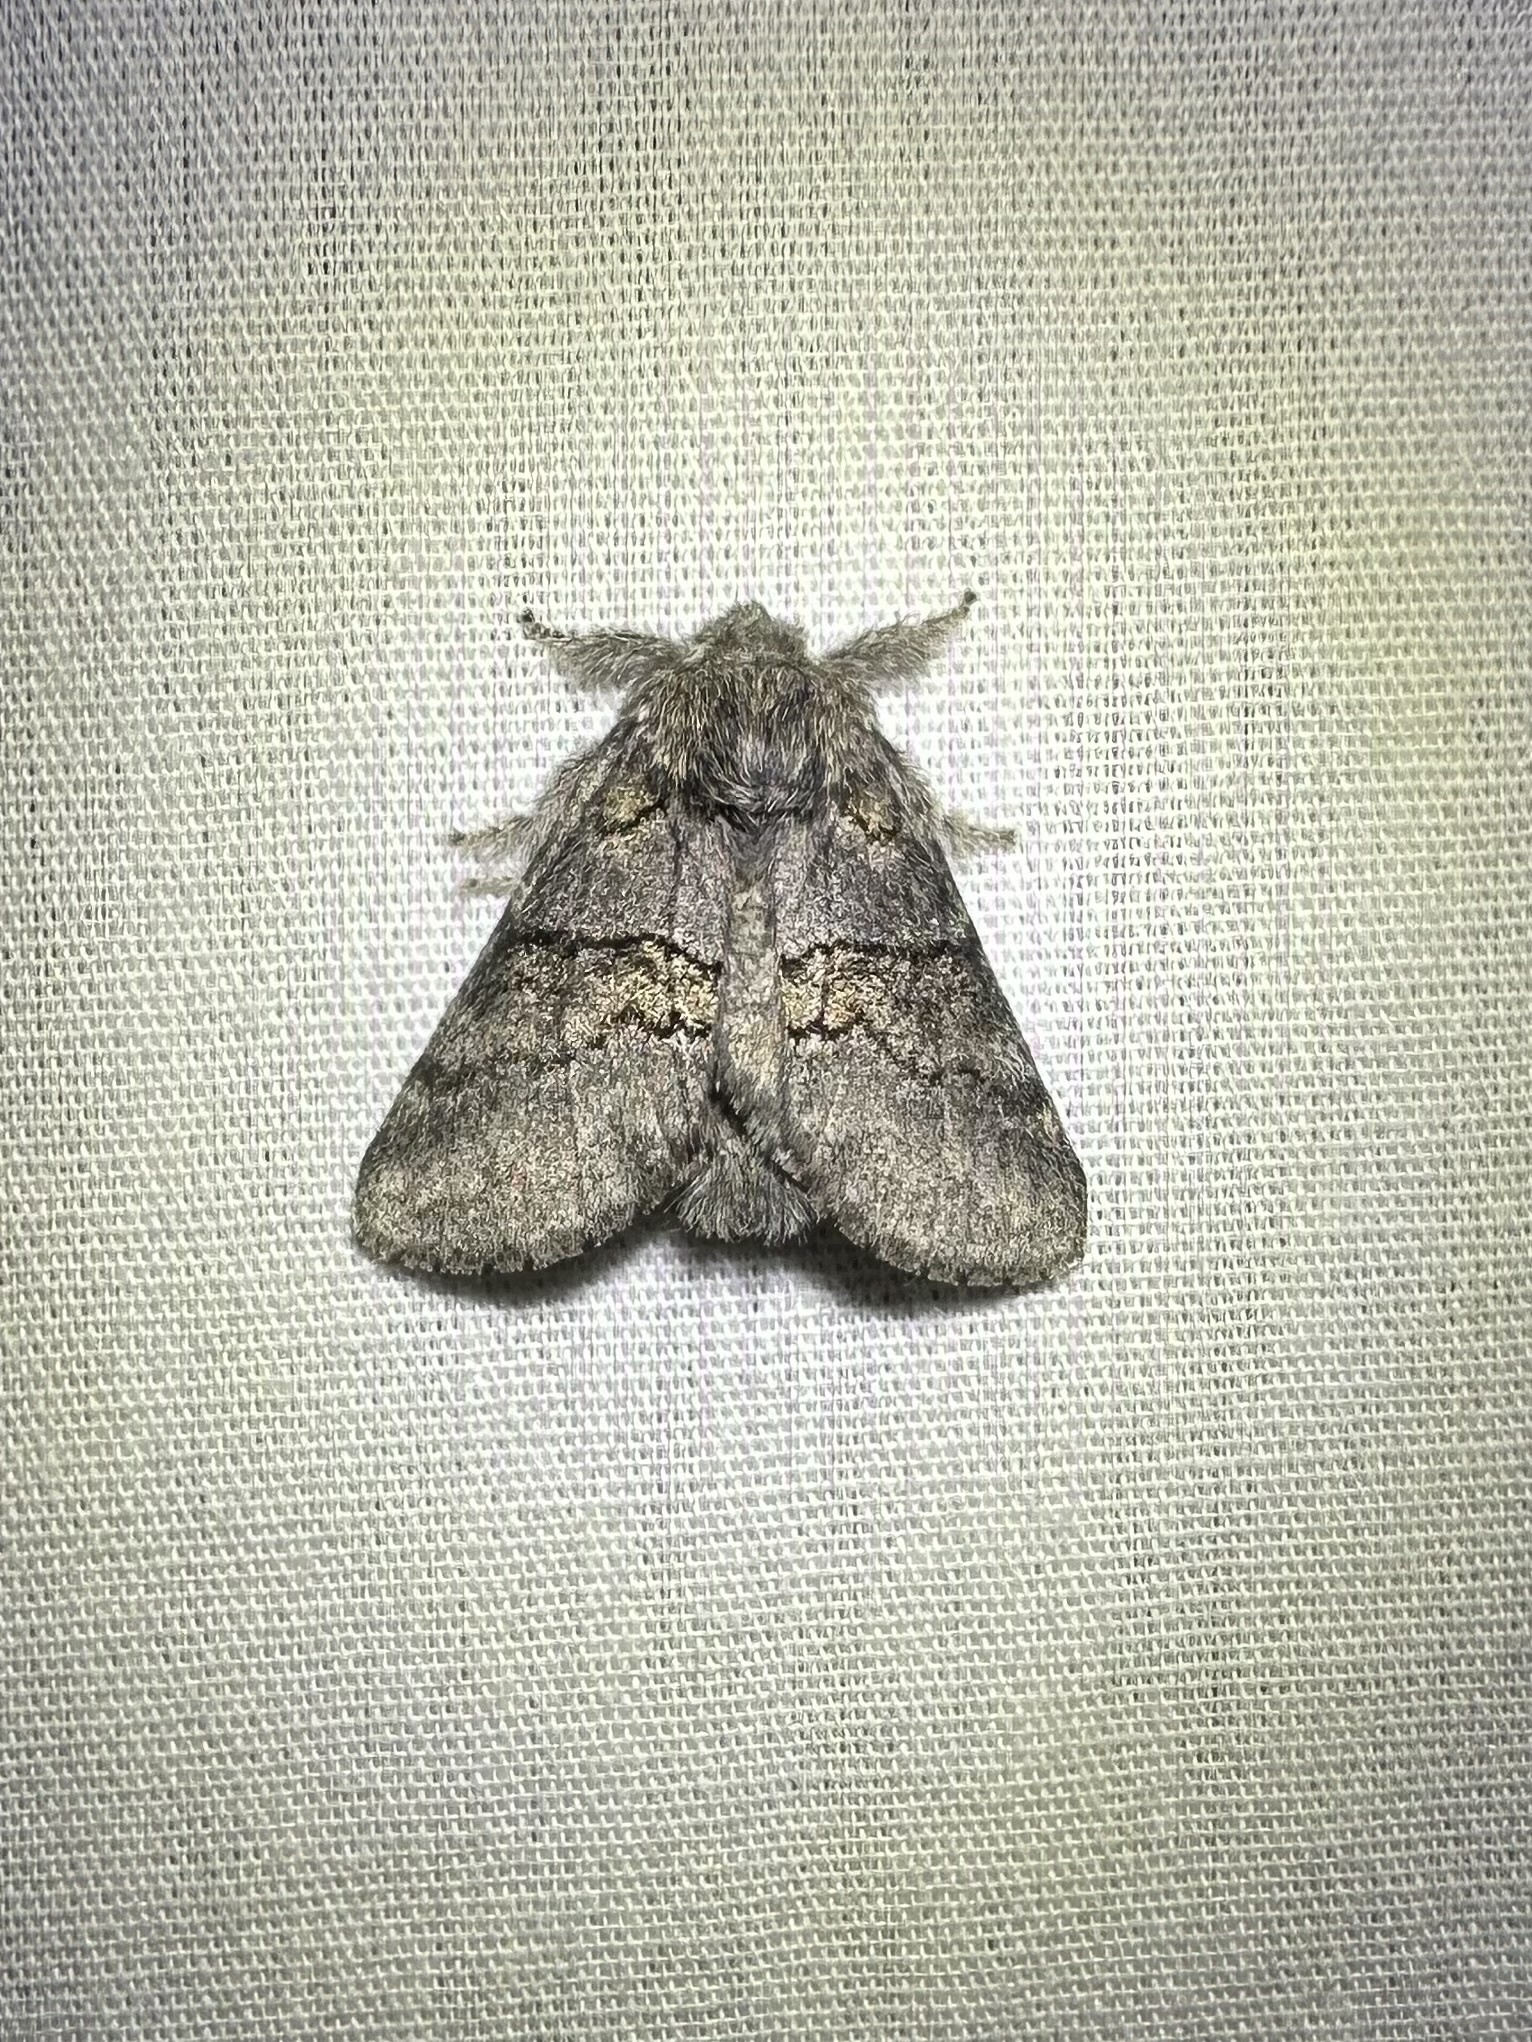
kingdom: Animalia
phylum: Arthropoda
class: Insecta
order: Lepidoptera
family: Notodontidae
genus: Gluphisia
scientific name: Gluphisia septentrionis
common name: Common gluphisia
